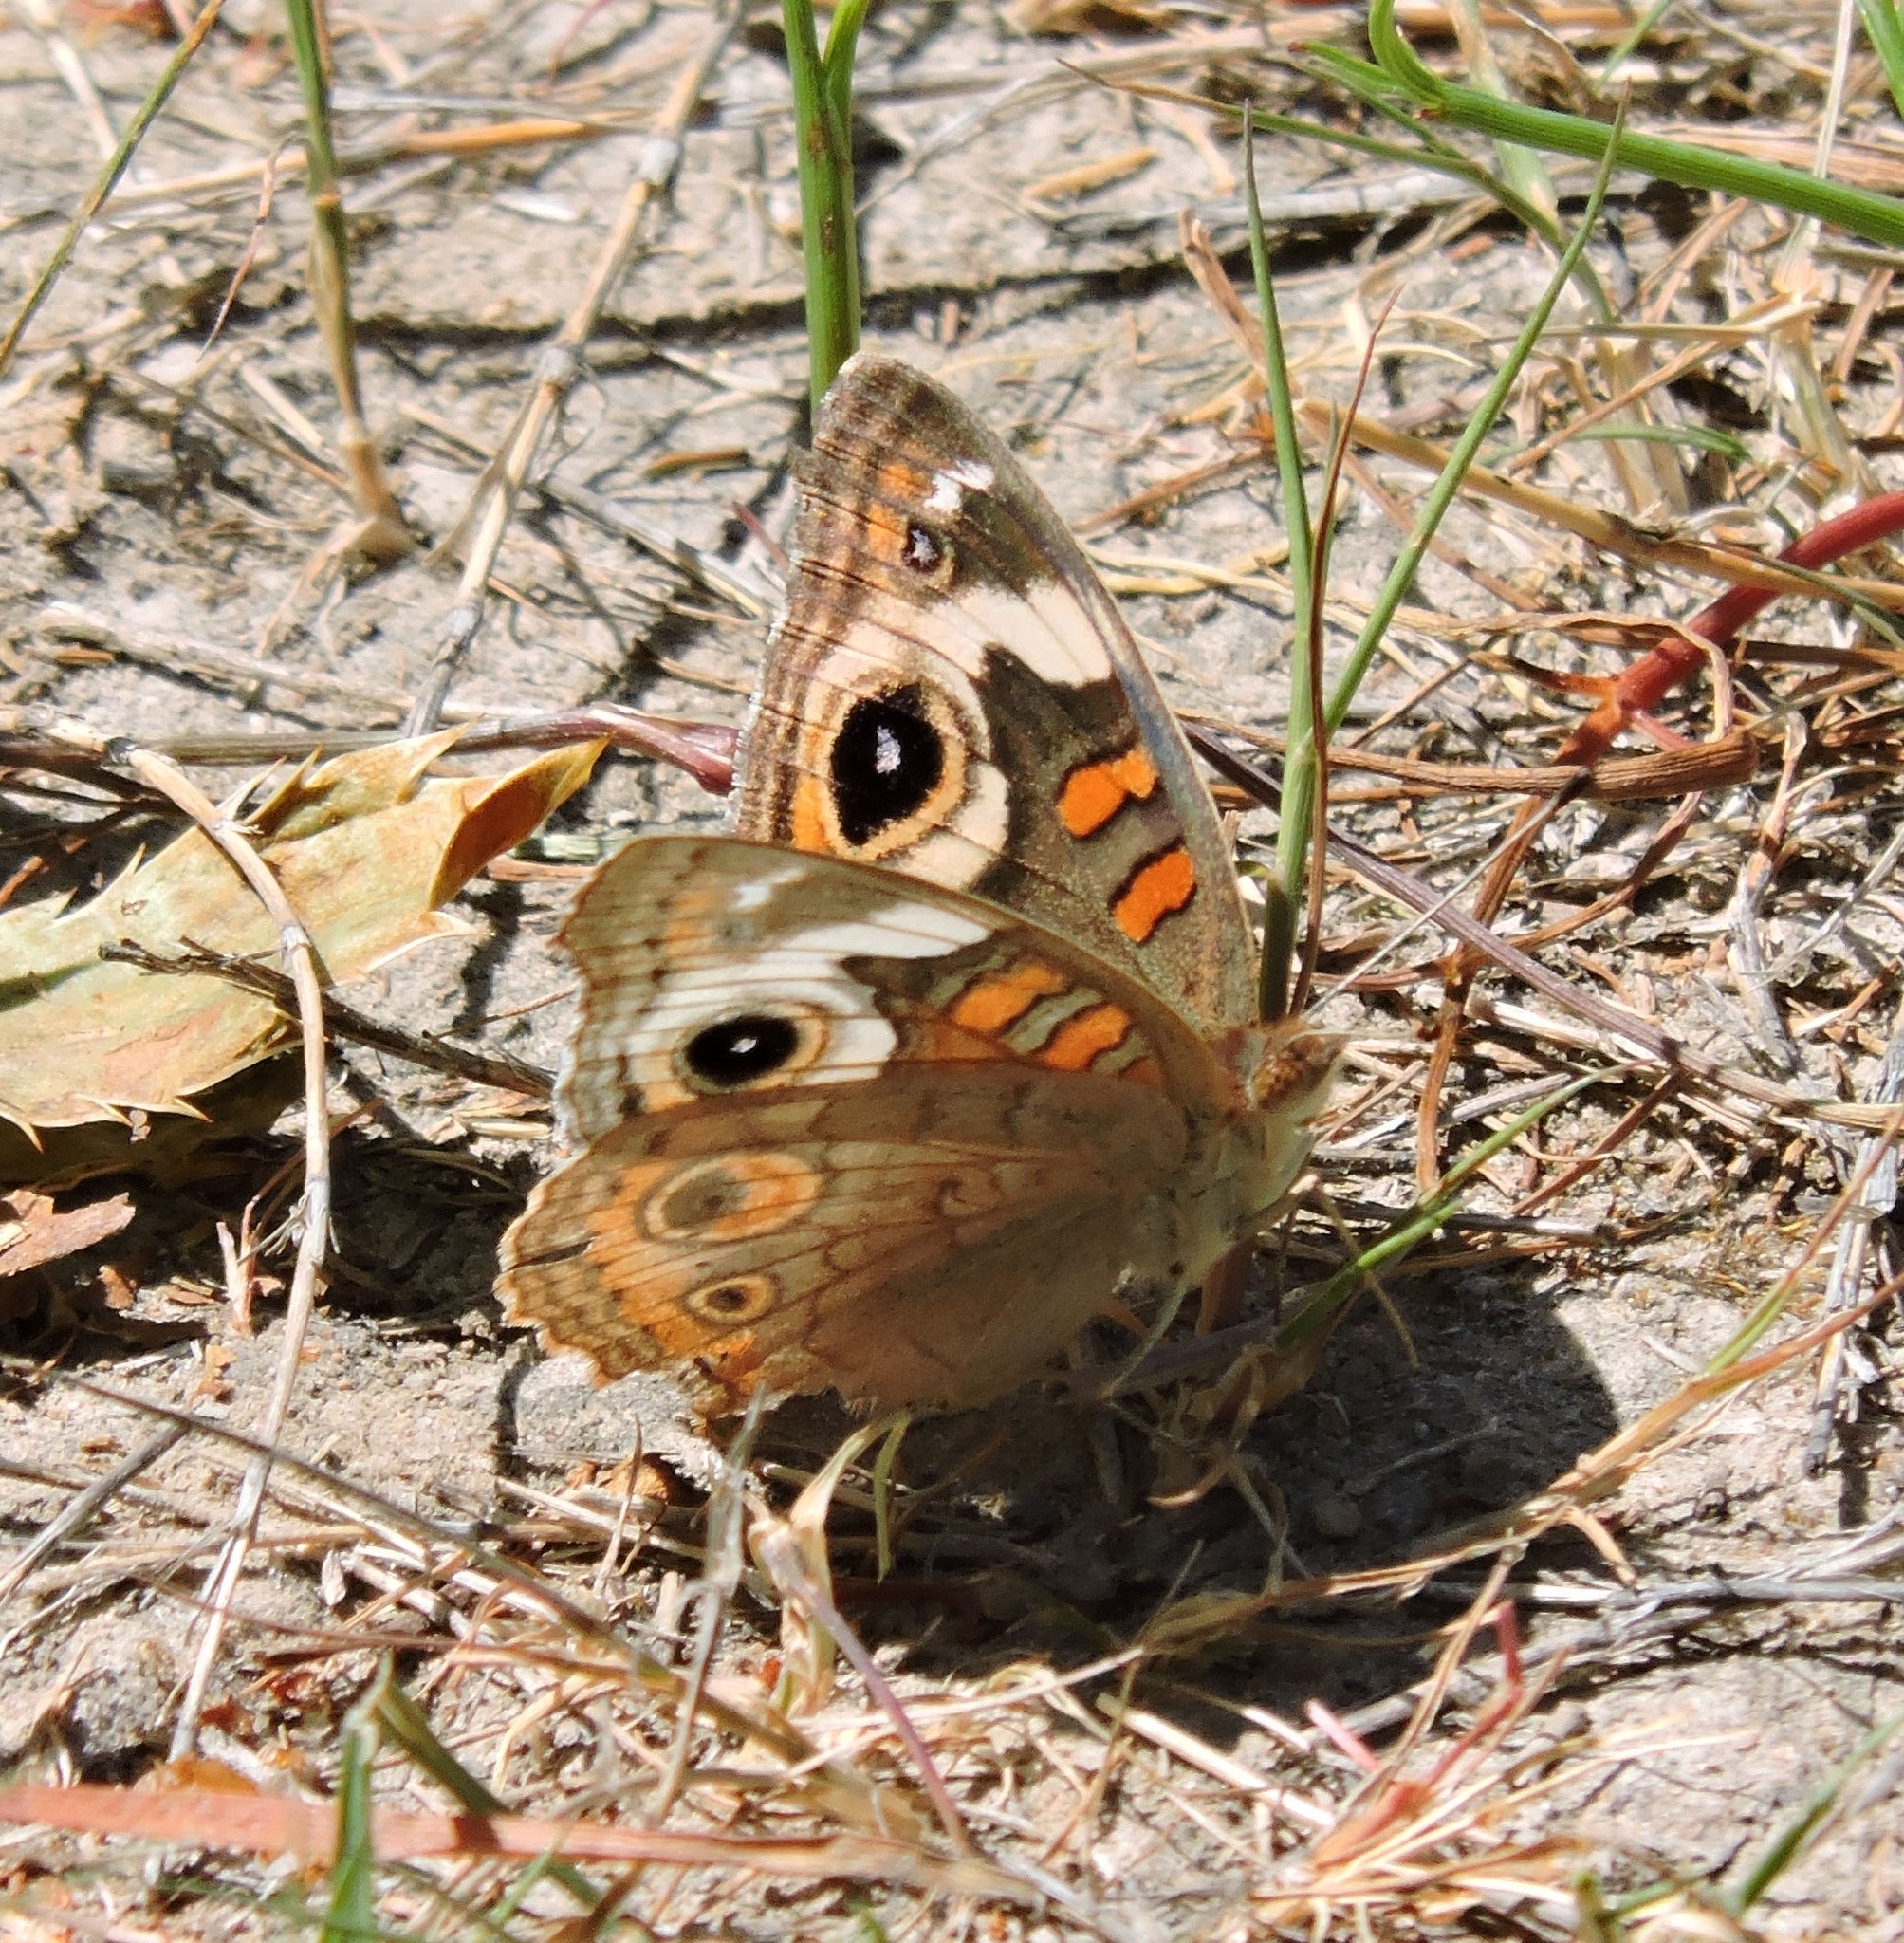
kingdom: Animalia
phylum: Arthropoda
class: Insecta
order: Lepidoptera
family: Nymphalidae
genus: Junonia
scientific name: Junonia grisea
